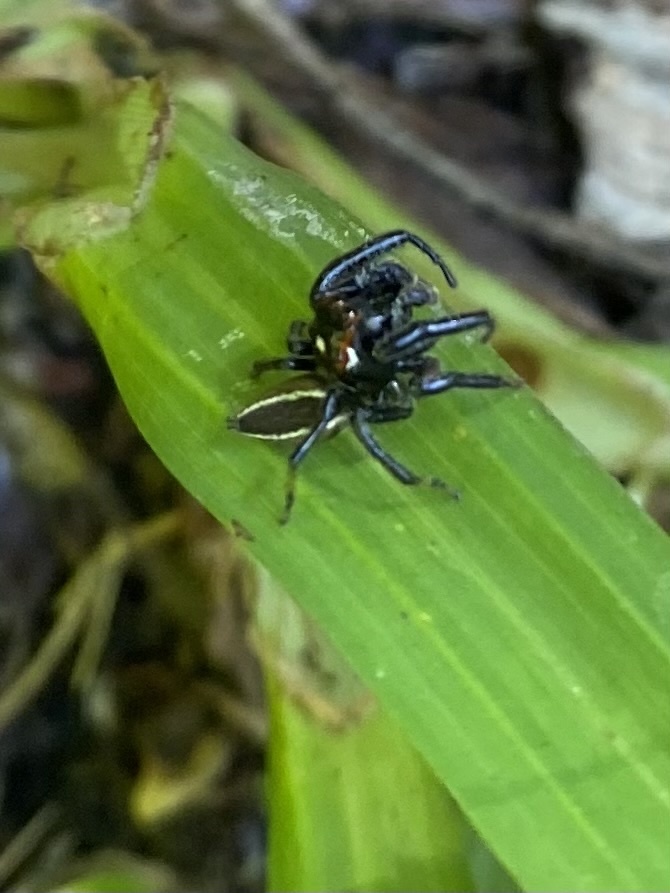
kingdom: Animalia
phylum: Arthropoda
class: Arachnida
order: Araneae
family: Salticidae
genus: Colonus
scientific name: Colonus sylvanus
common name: Jumping spiders
